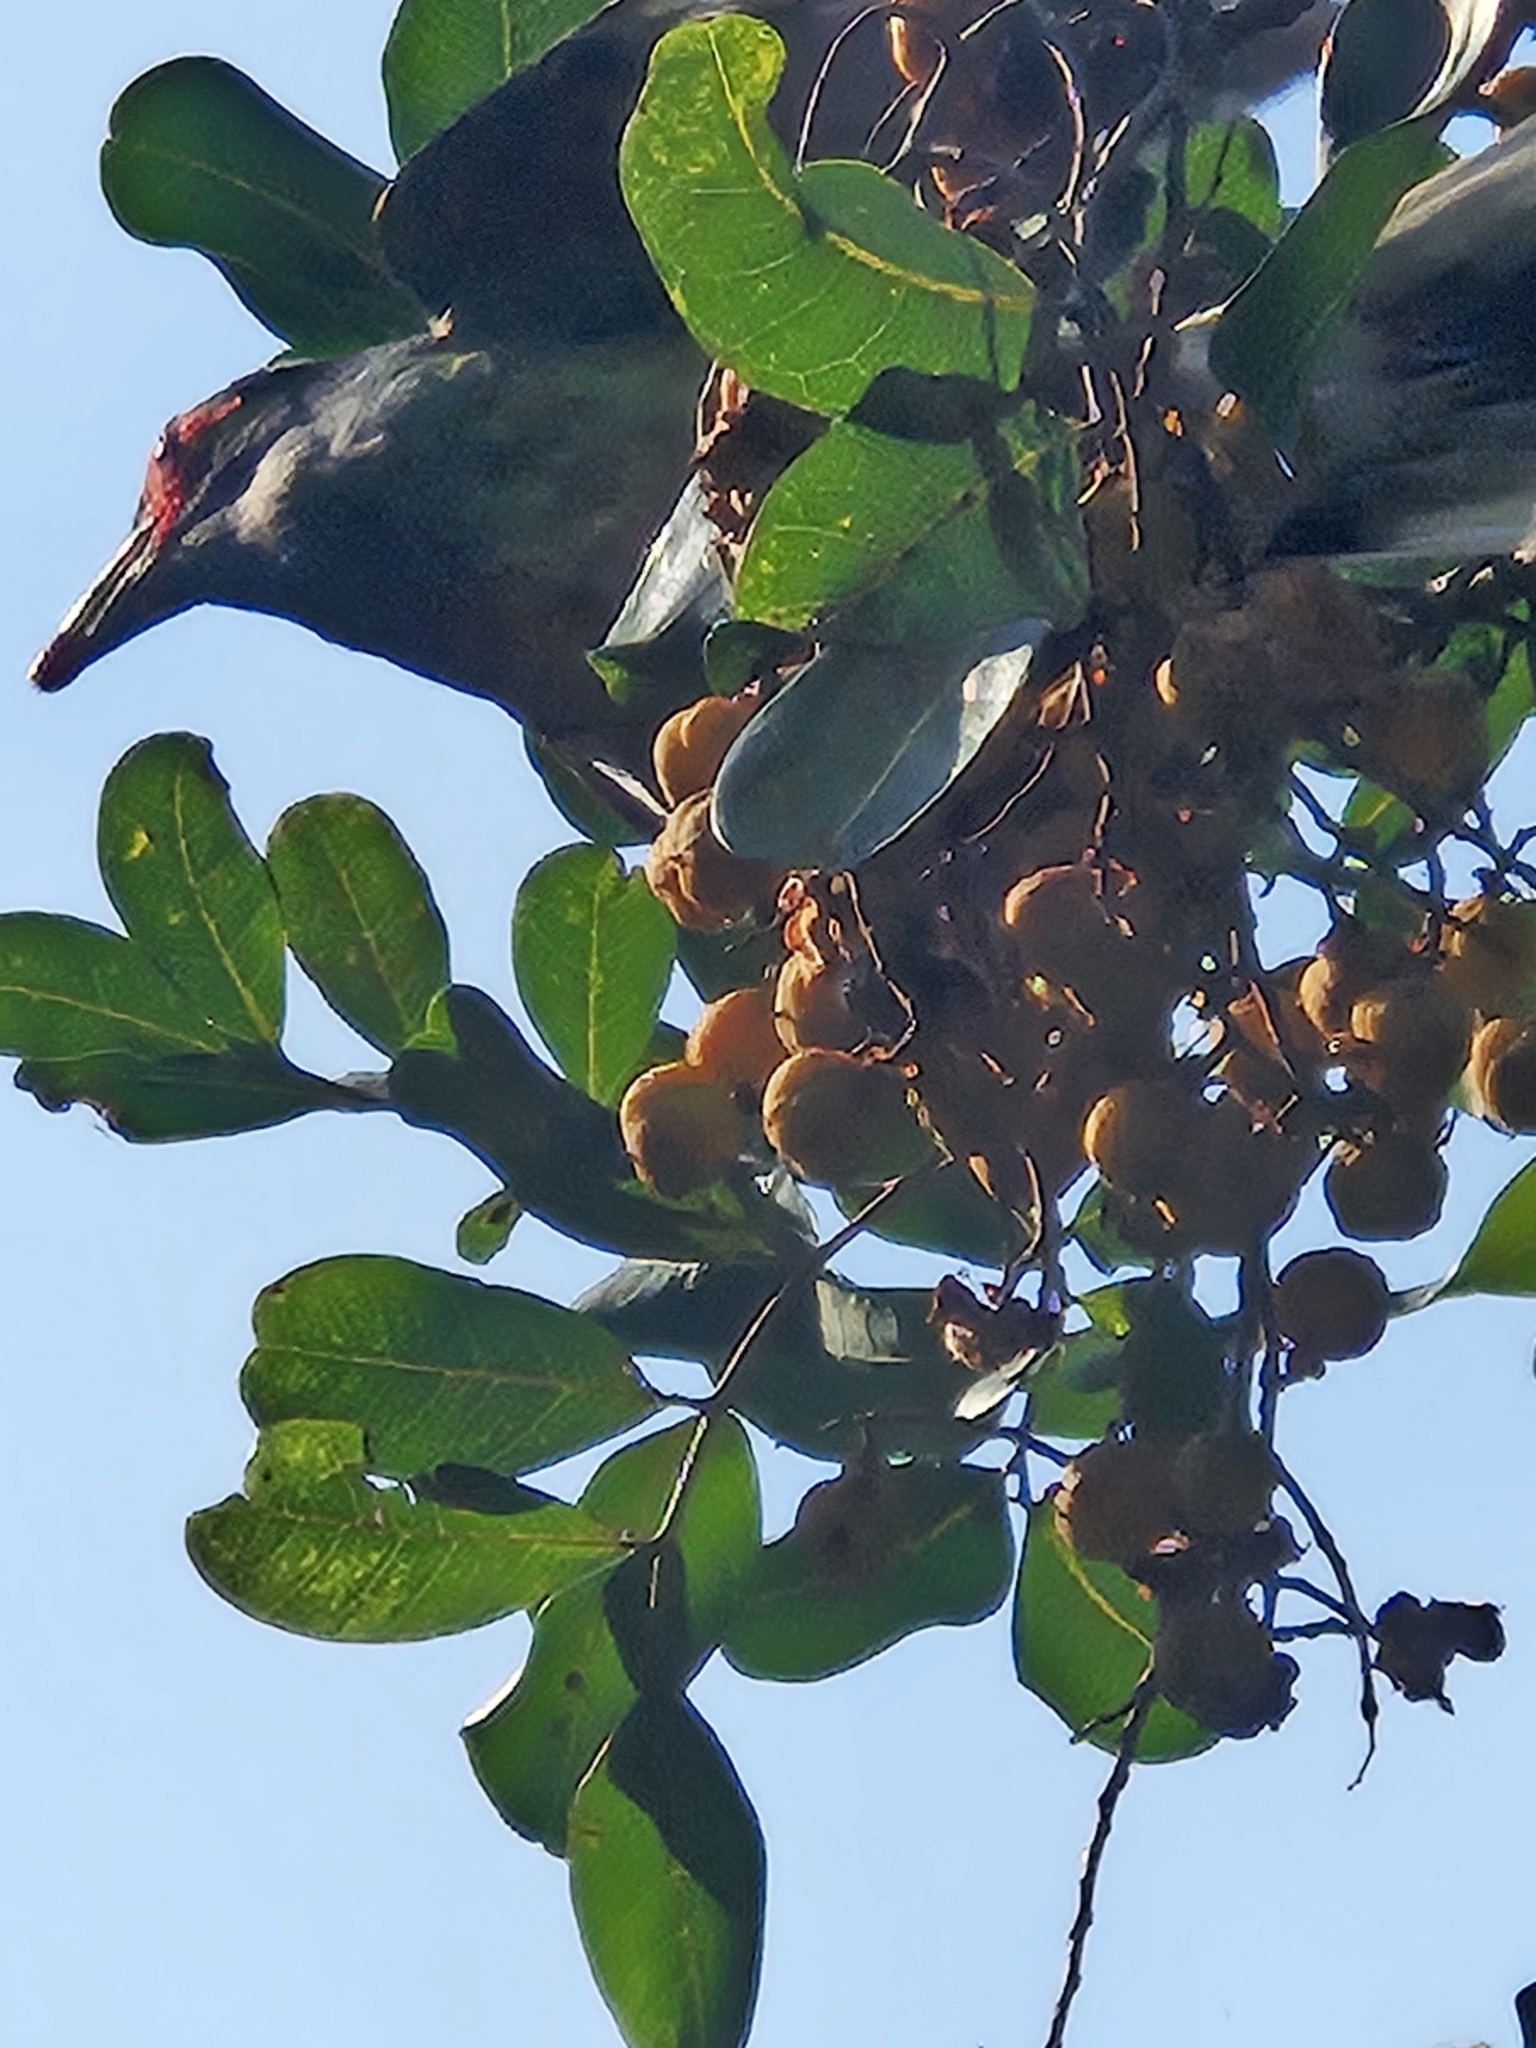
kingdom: Animalia
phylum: Chordata
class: Aves
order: Passeriformes
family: Oriolidae
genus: Sphecotheres
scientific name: Sphecotheres vieilloti
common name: Australasian figbird
